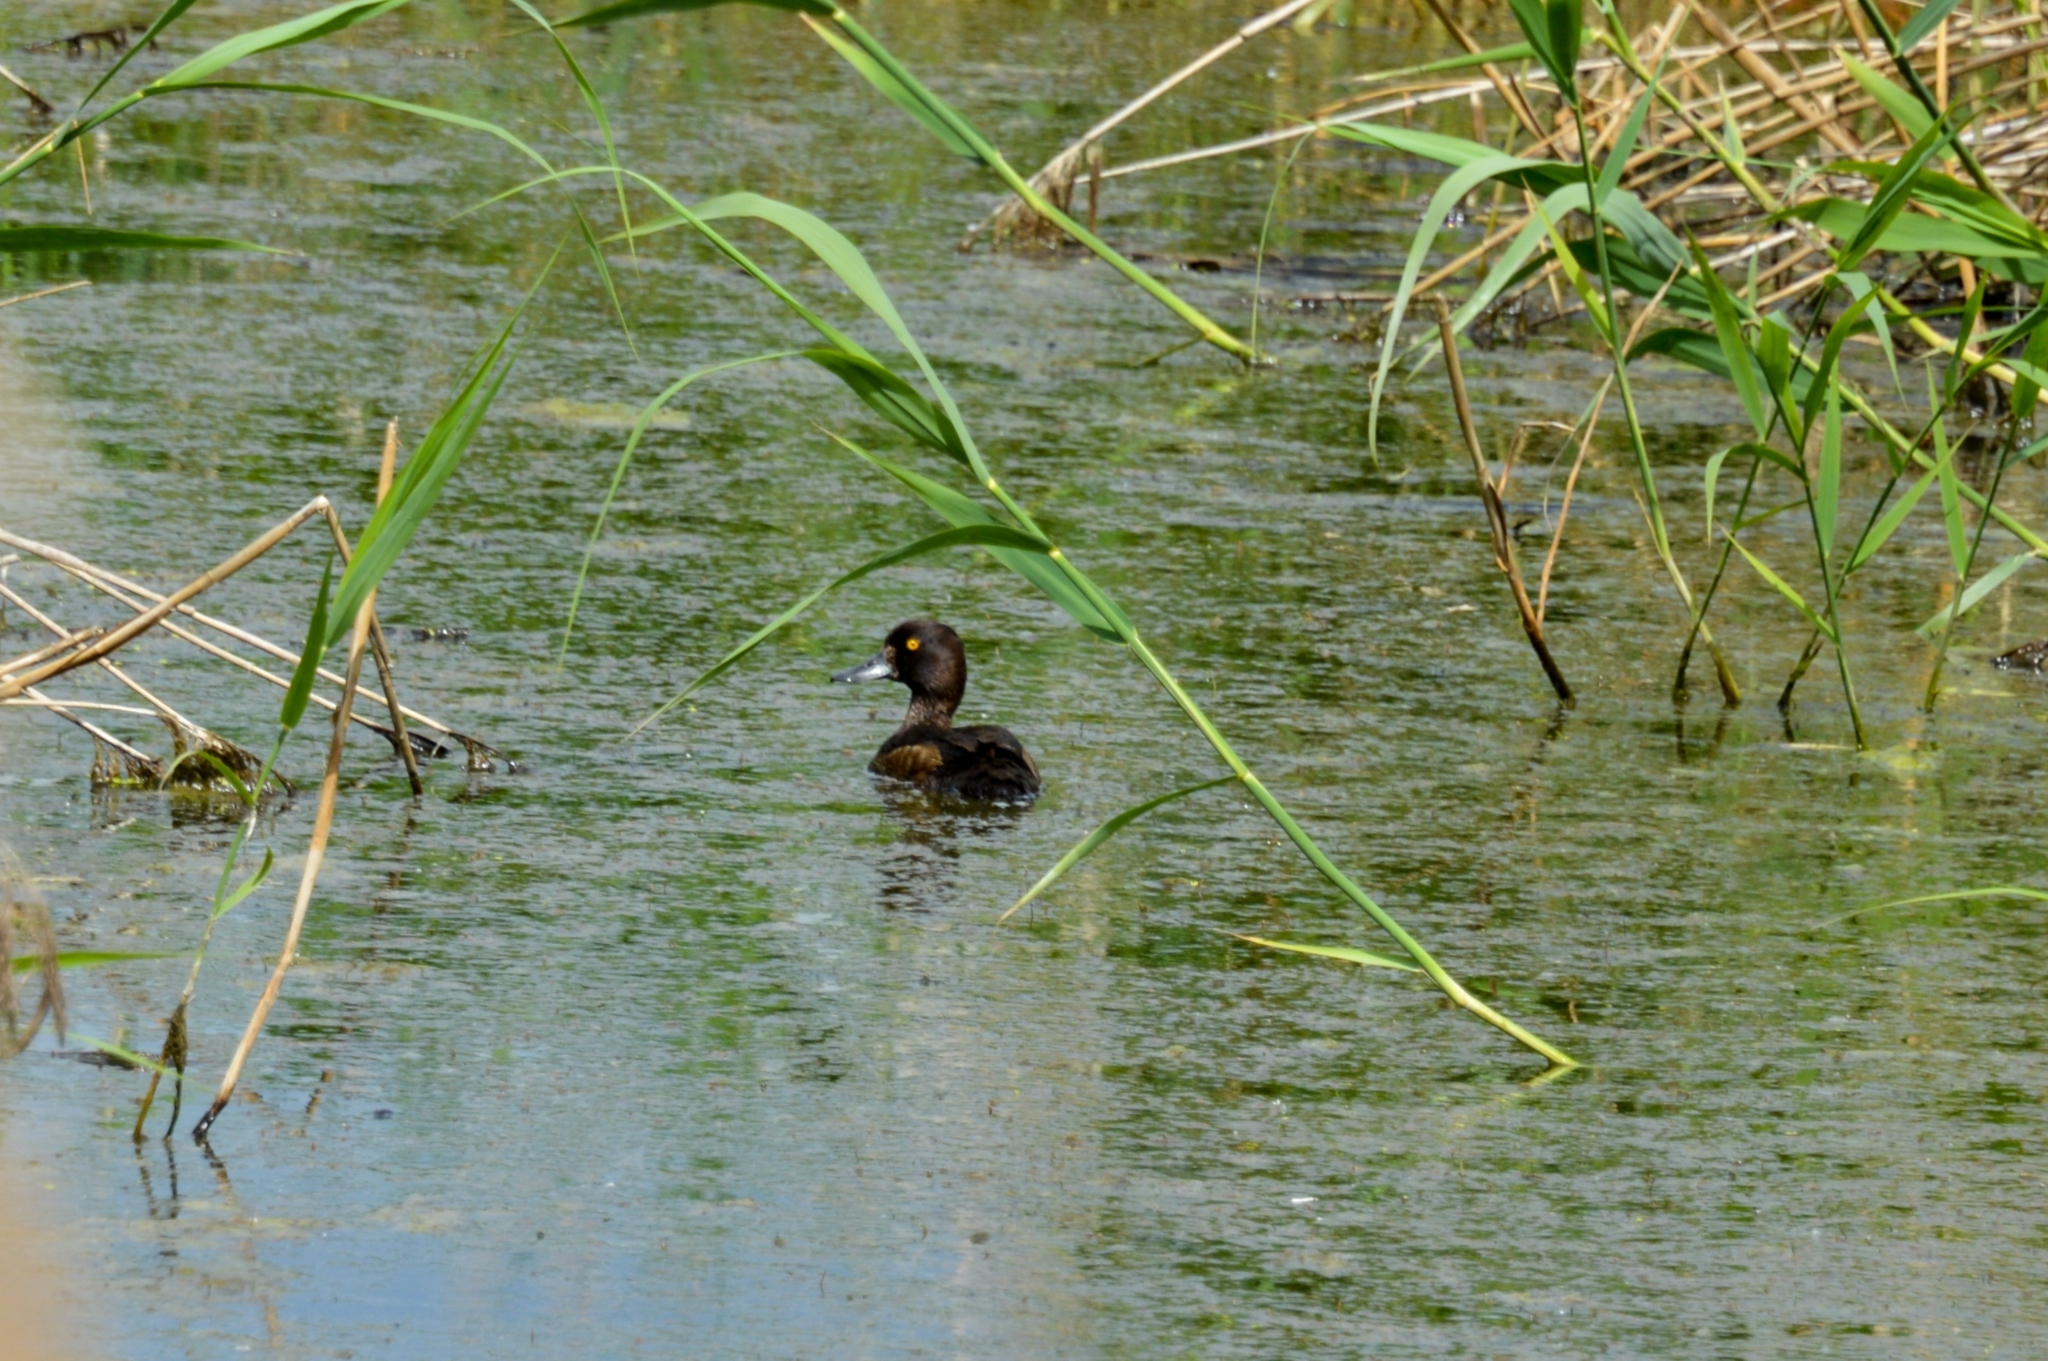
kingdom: Animalia
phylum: Chordata
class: Aves
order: Anseriformes
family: Anatidae
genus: Aythya
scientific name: Aythya fuligula
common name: Tufted duck
